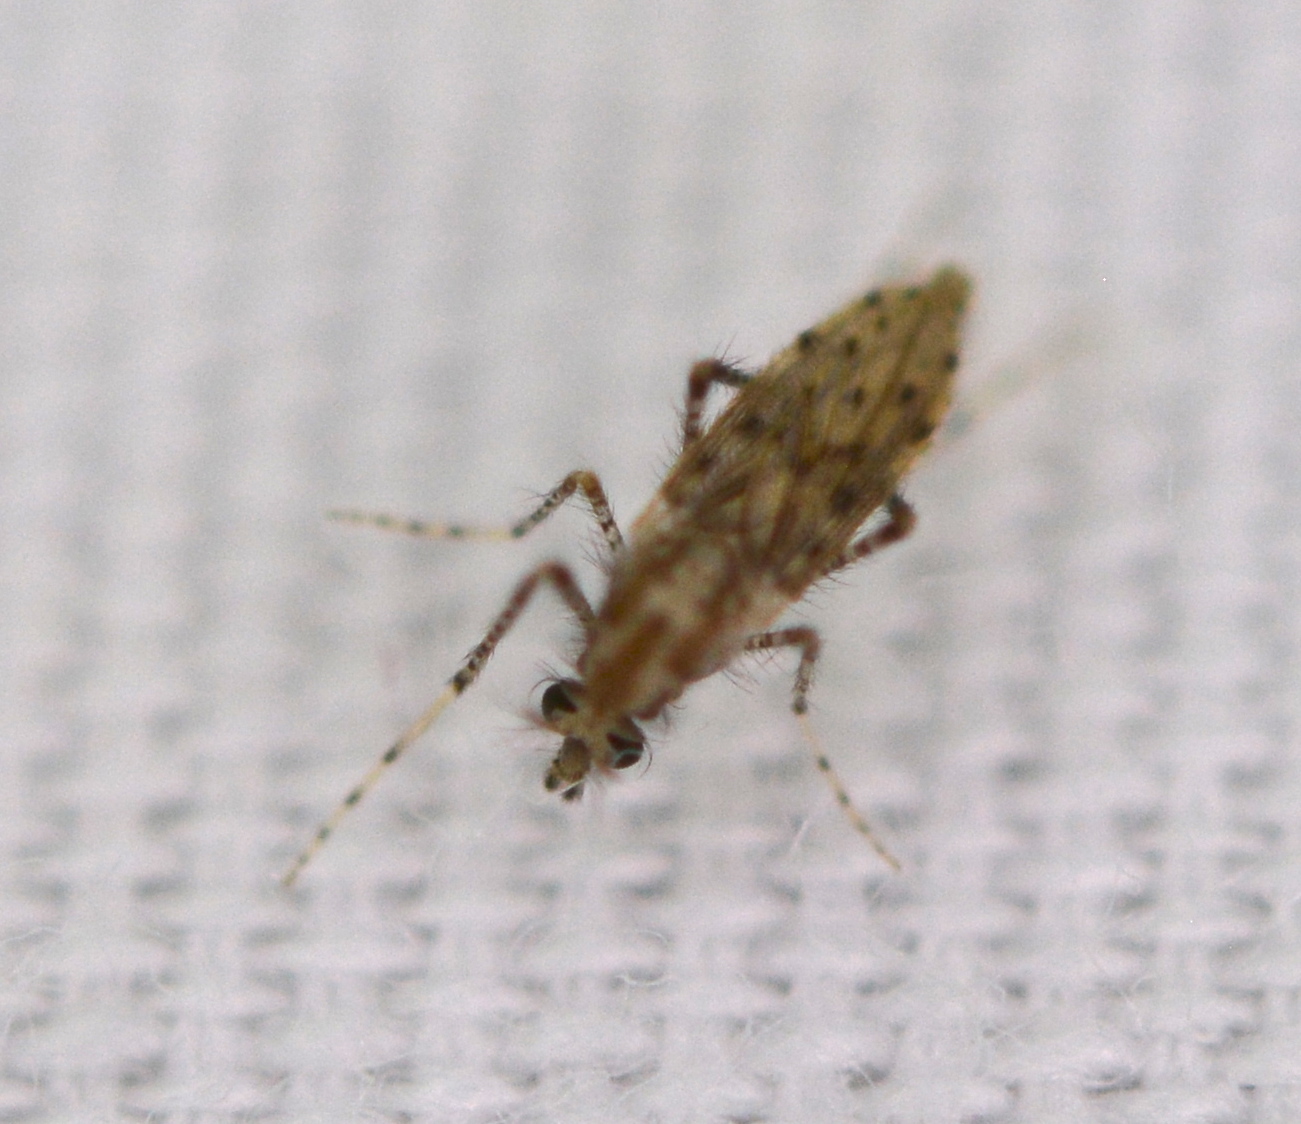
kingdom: Animalia
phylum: Arthropoda
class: Insecta
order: Diptera
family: Chaoboridae
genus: Chaoborus
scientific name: Chaoborus punctipennis
